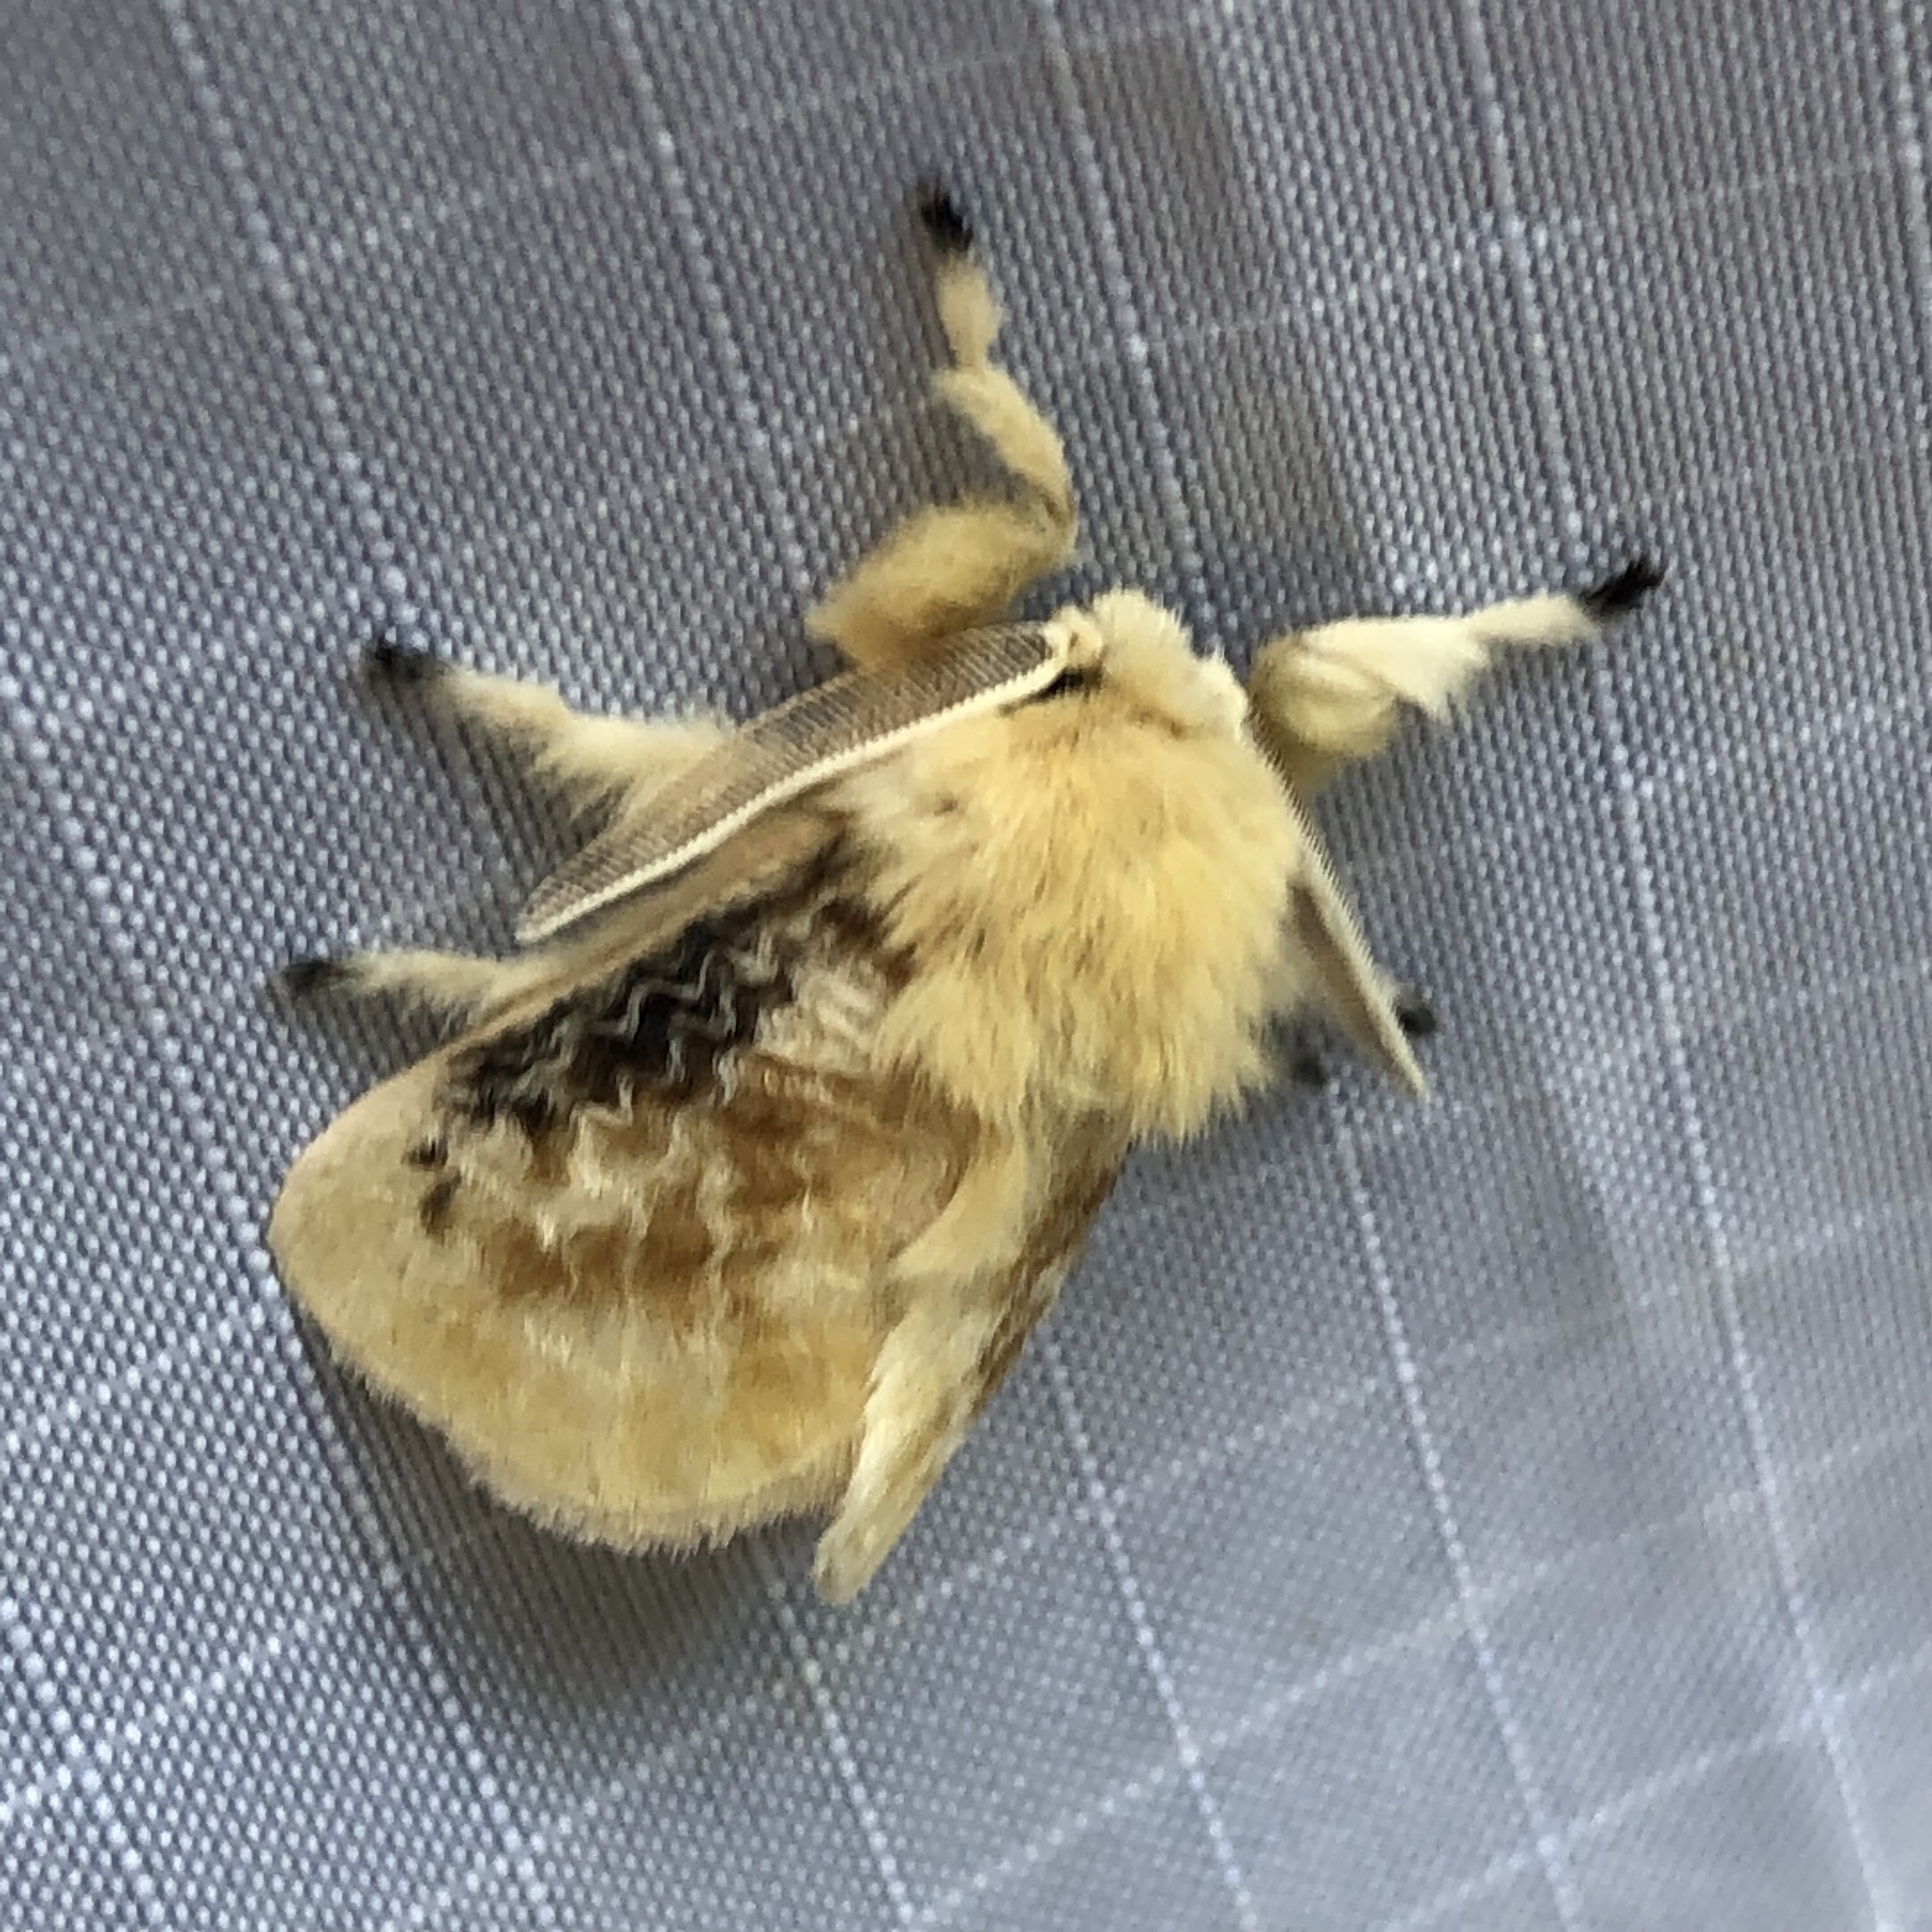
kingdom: Animalia
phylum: Arthropoda
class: Insecta
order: Lepidoptera
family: Megalopygidae
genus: Megalopyge
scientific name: Megalopyge crispata
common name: Black-waved flannel moth
